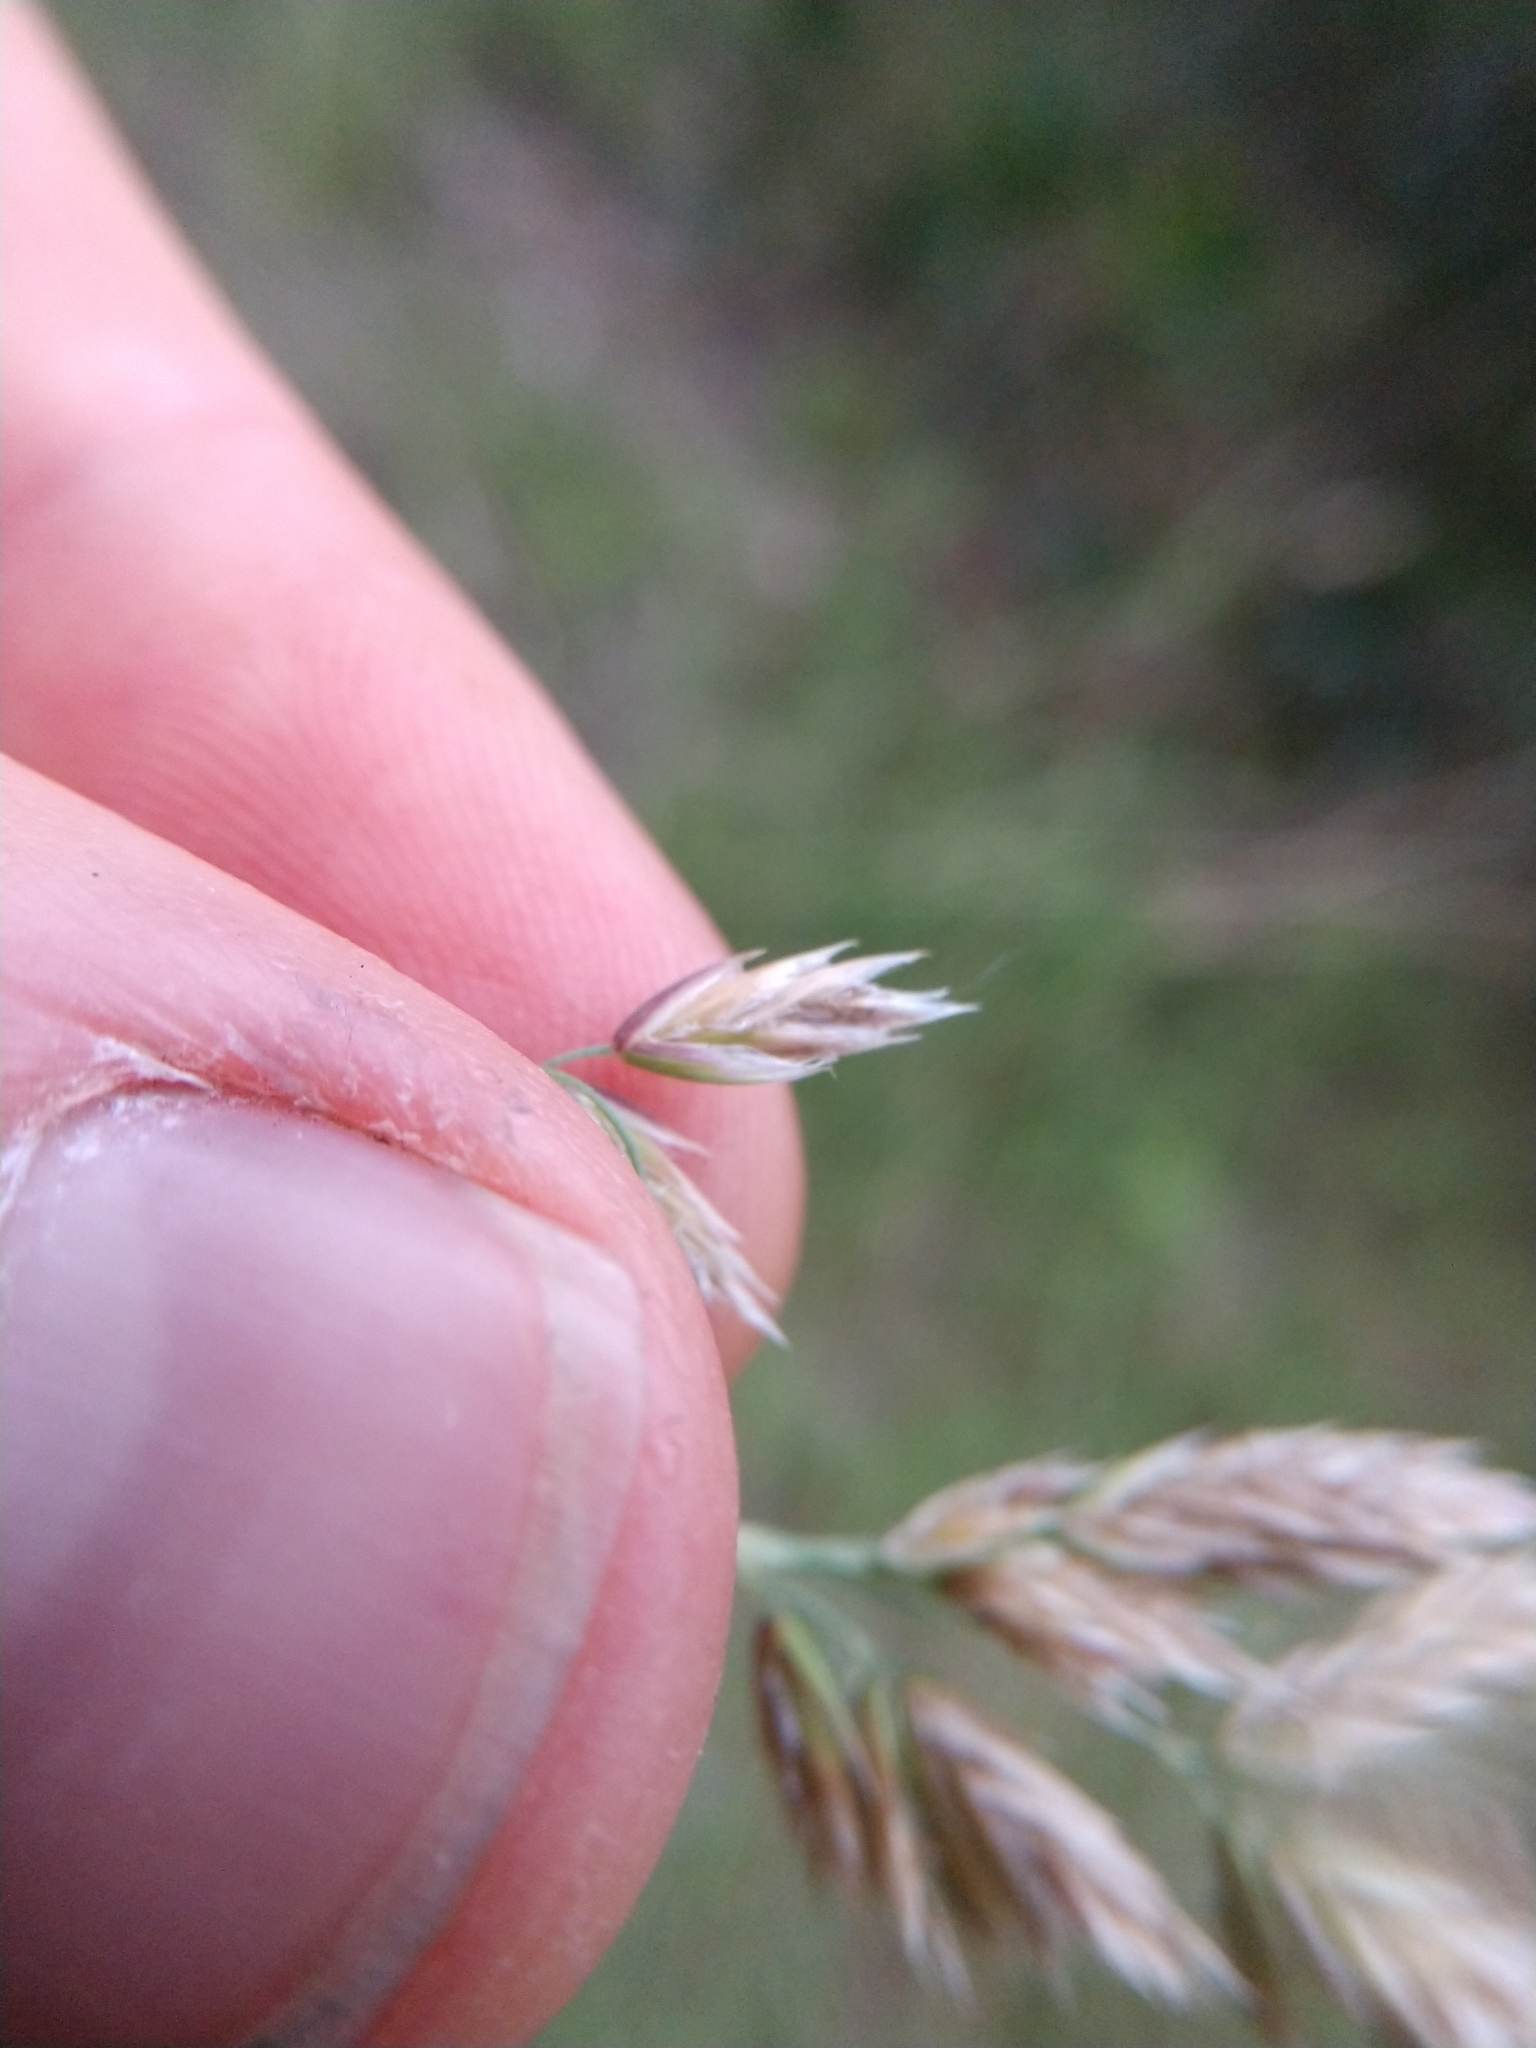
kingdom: Plantae
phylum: Tracheophyta
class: Liliopsida
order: Poales
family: Poaceae
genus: Poa
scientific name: Poa arachnifera
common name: Texas bluegrass
